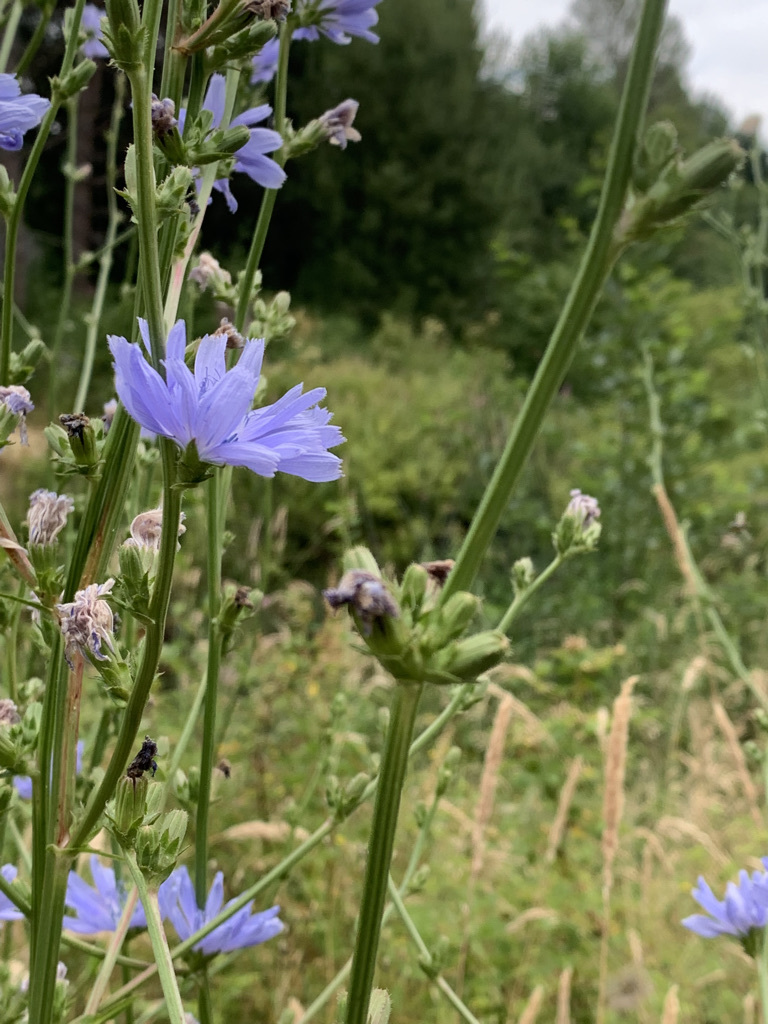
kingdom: Plantae
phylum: Tracheophyta
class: Magnoliopsida
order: Asterales
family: Asteraceae
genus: Cichorium
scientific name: Cichorium intybus
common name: Chicory
